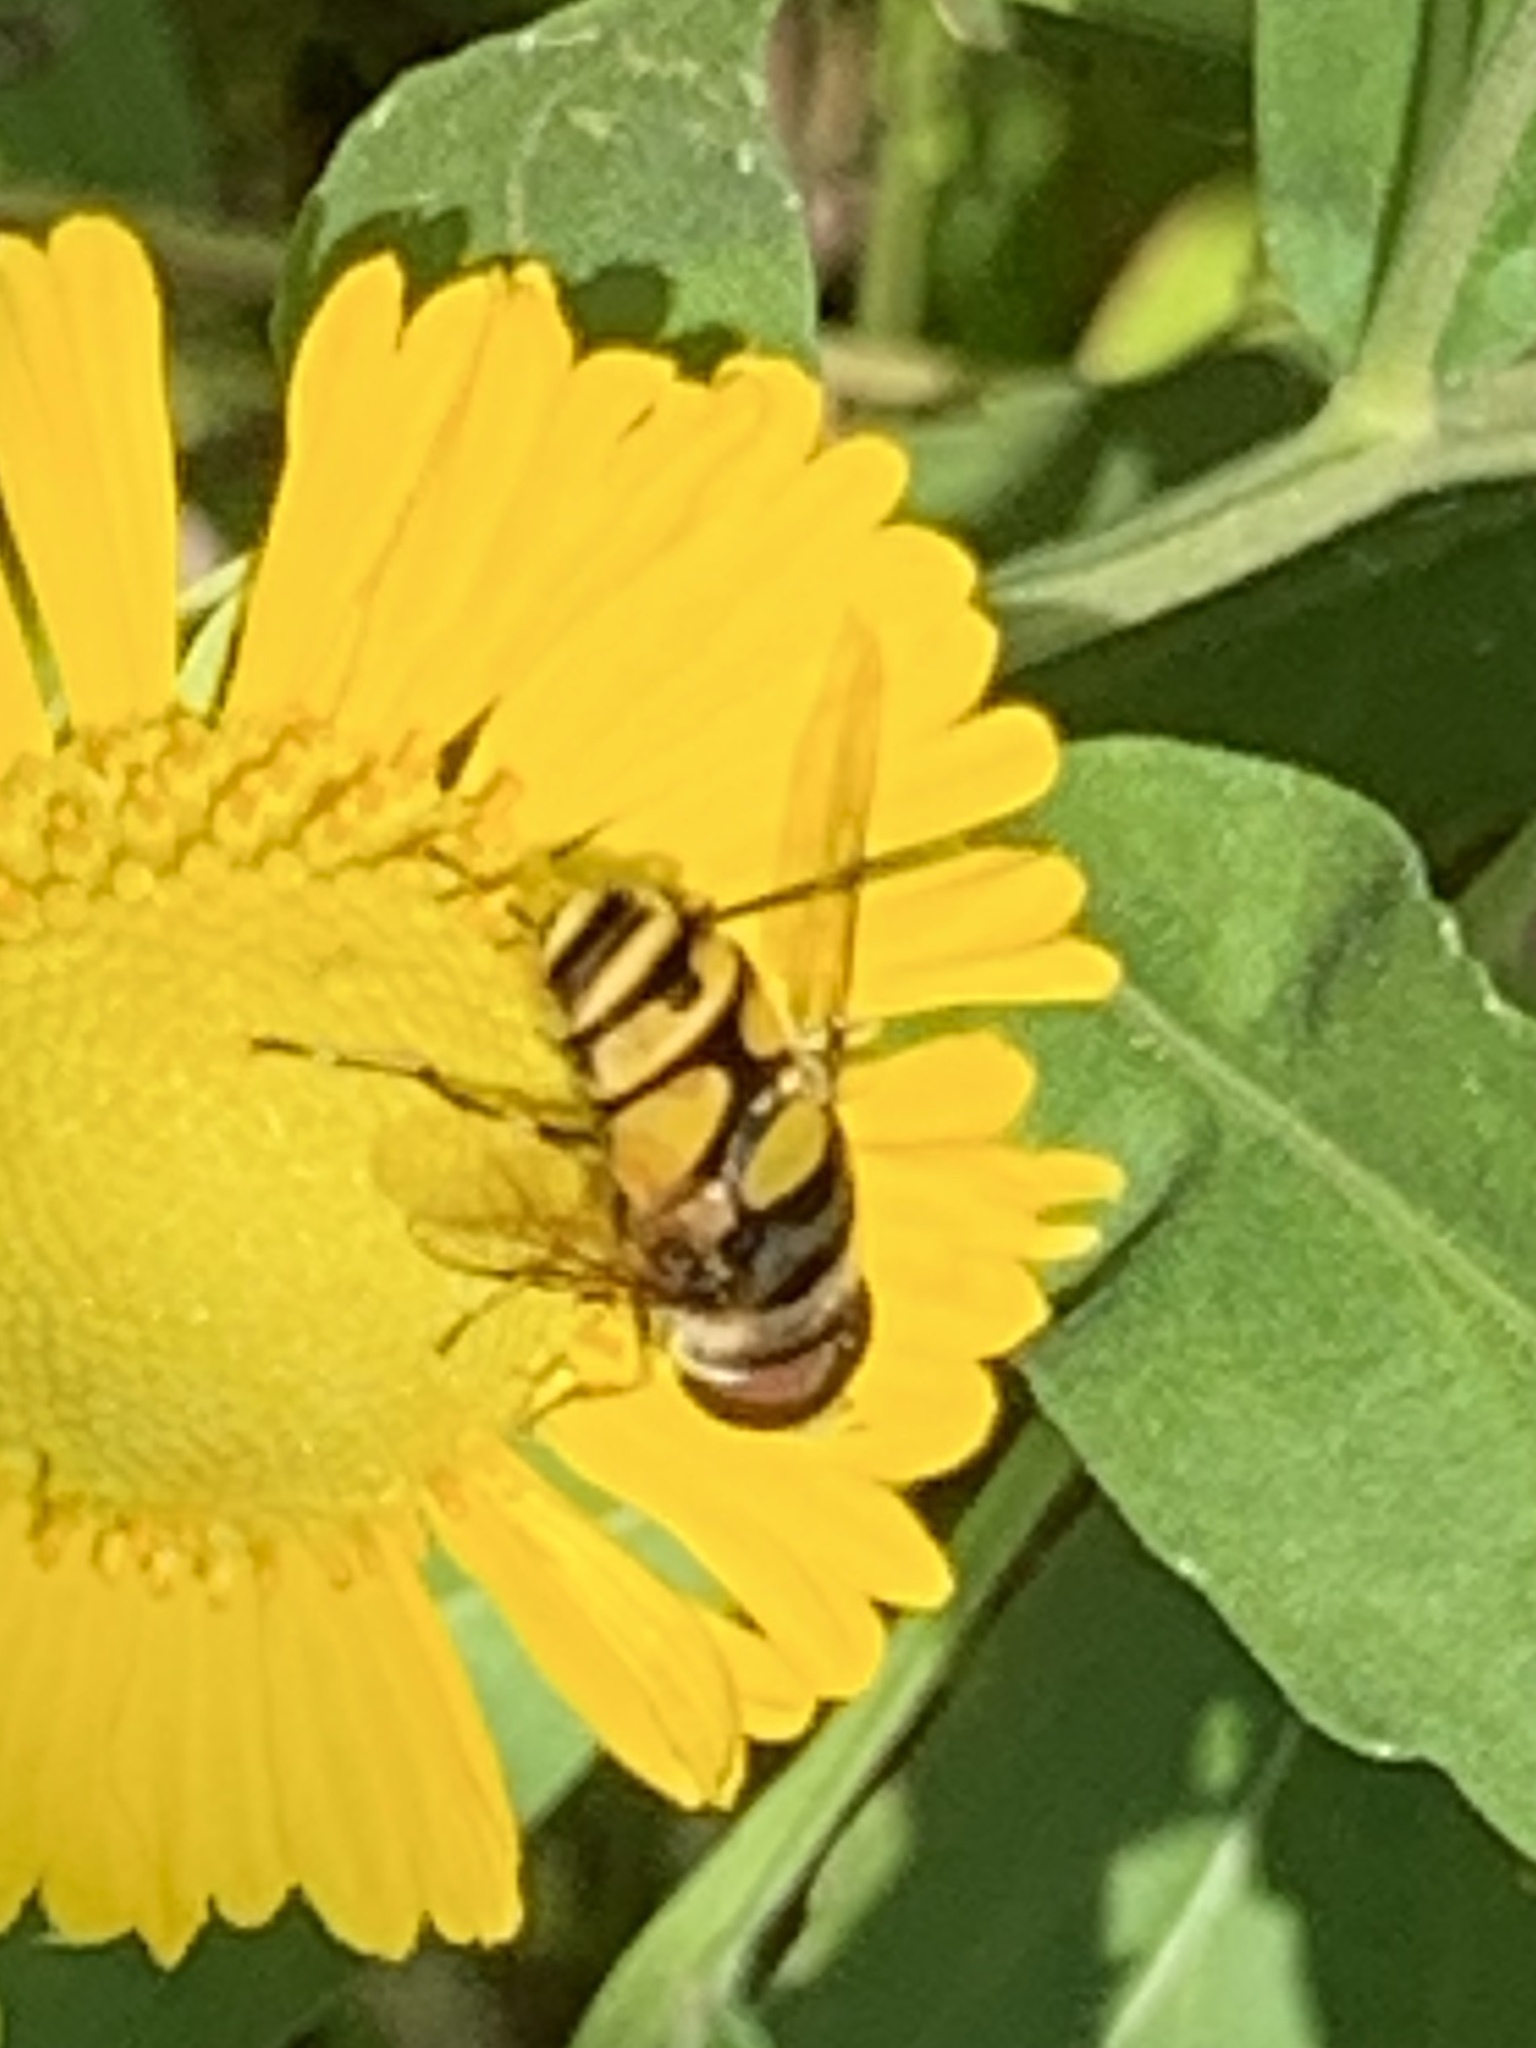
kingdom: Animalia
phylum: Arthropoda
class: Insecta
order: Diptera
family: Syrphidae
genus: Eristalis
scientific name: Eristalis transversa
